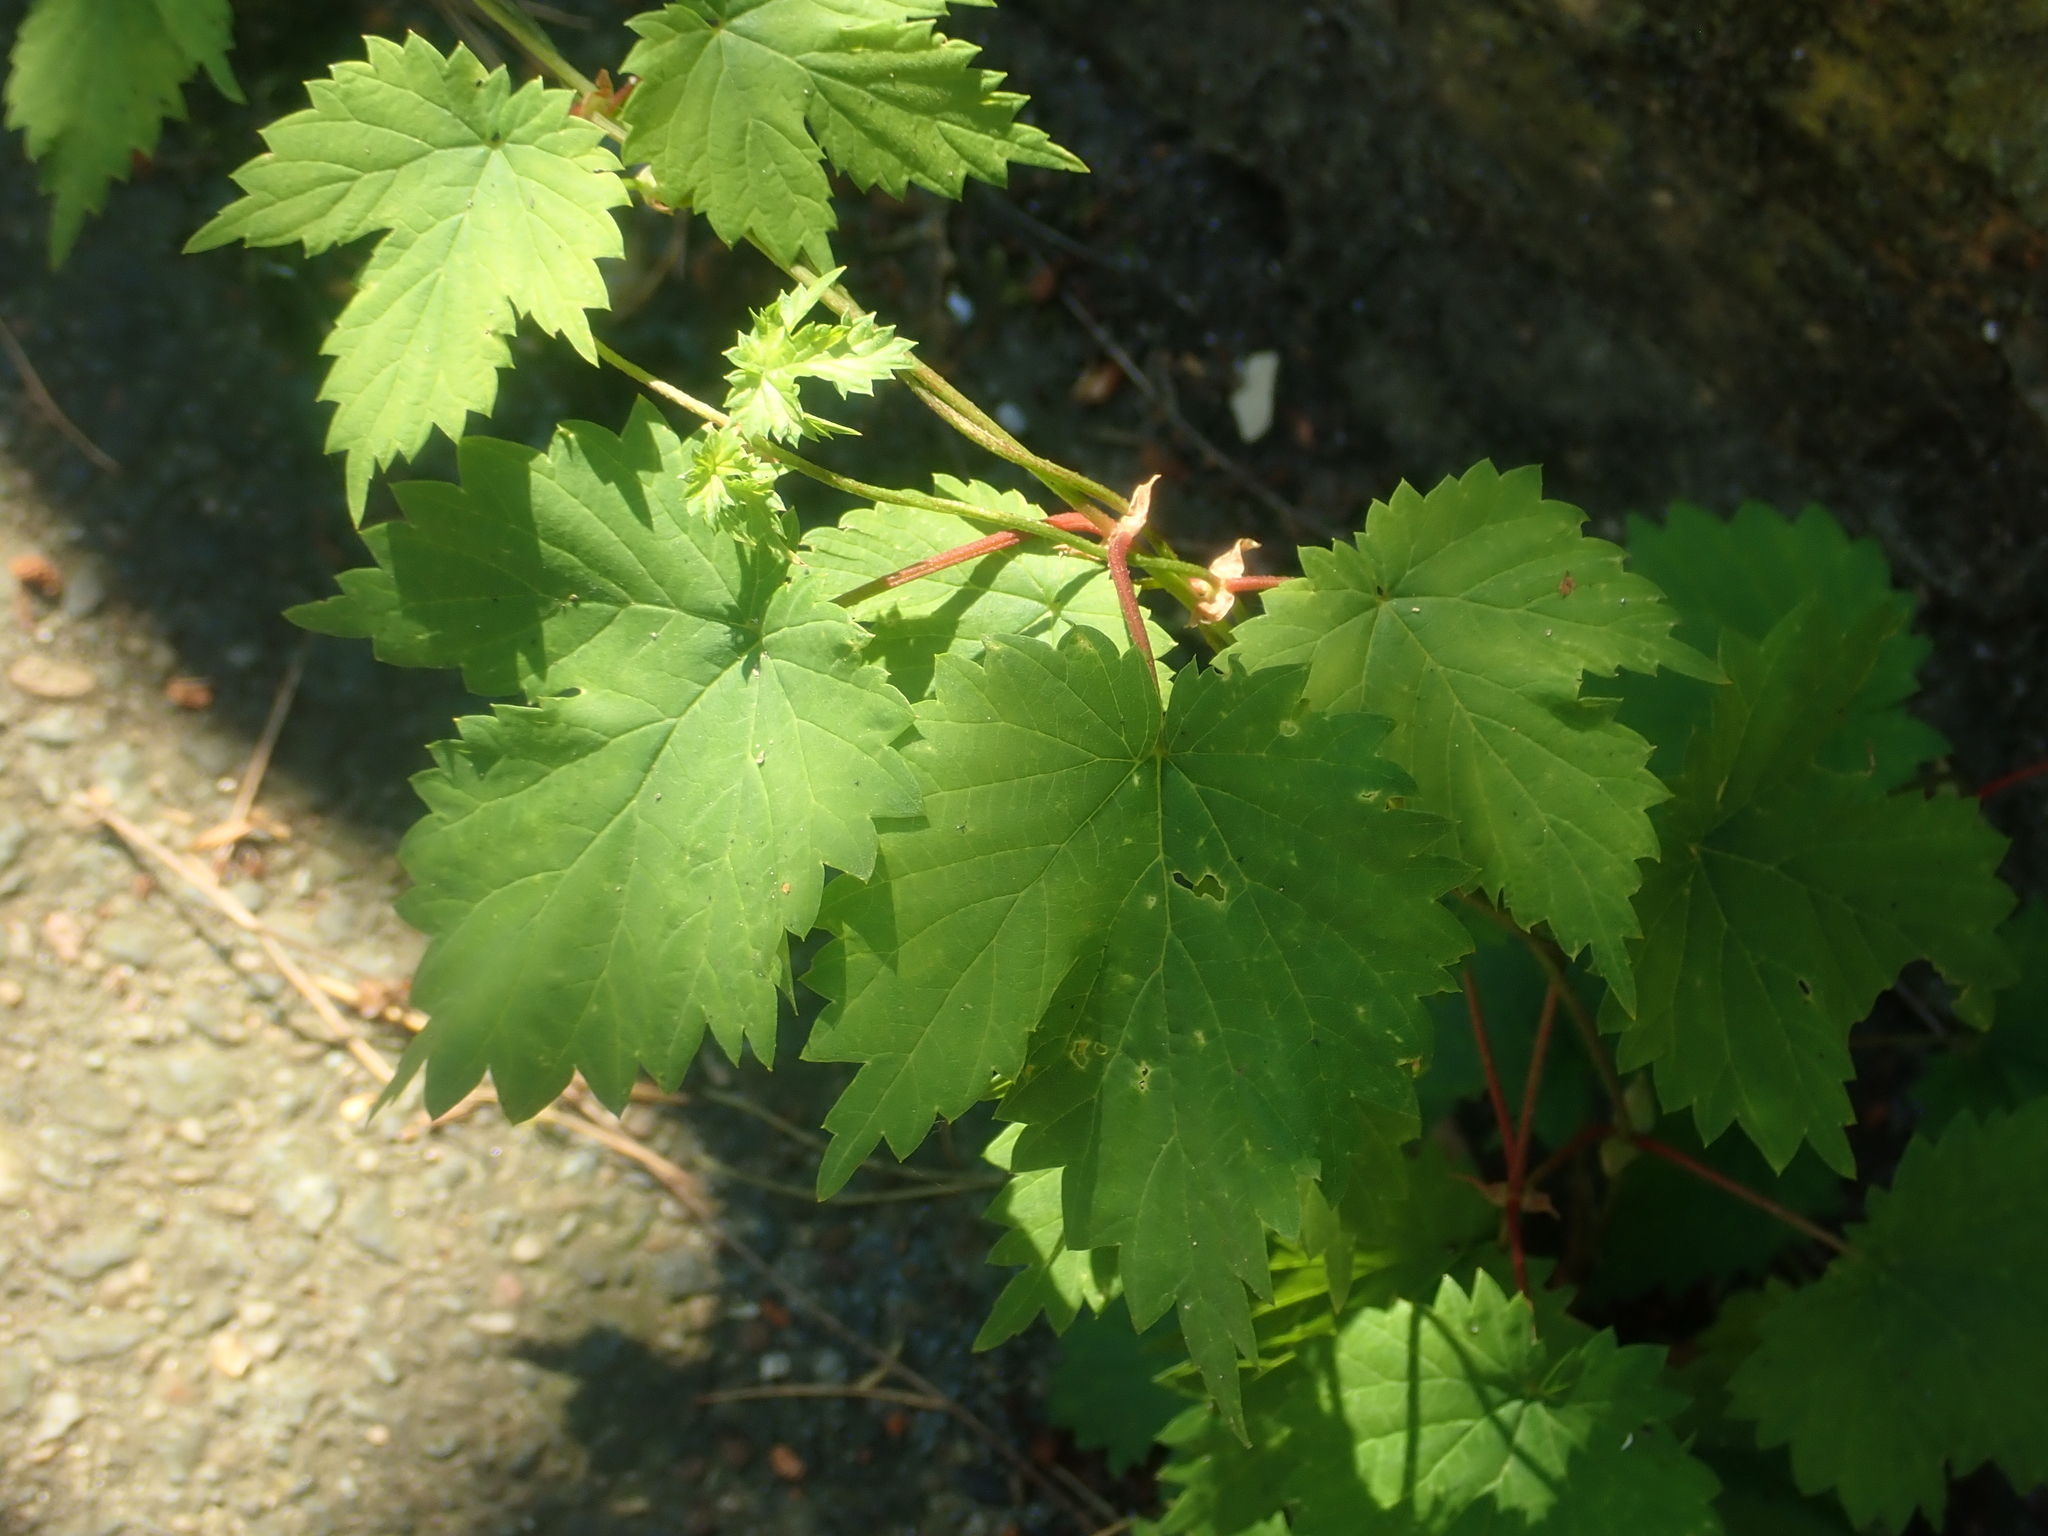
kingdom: Plantae
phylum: Tracheophyta
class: Magnoliopsida
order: Rosales
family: Cannabaceae
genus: Humulus
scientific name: Humulus lupulus
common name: Hop
